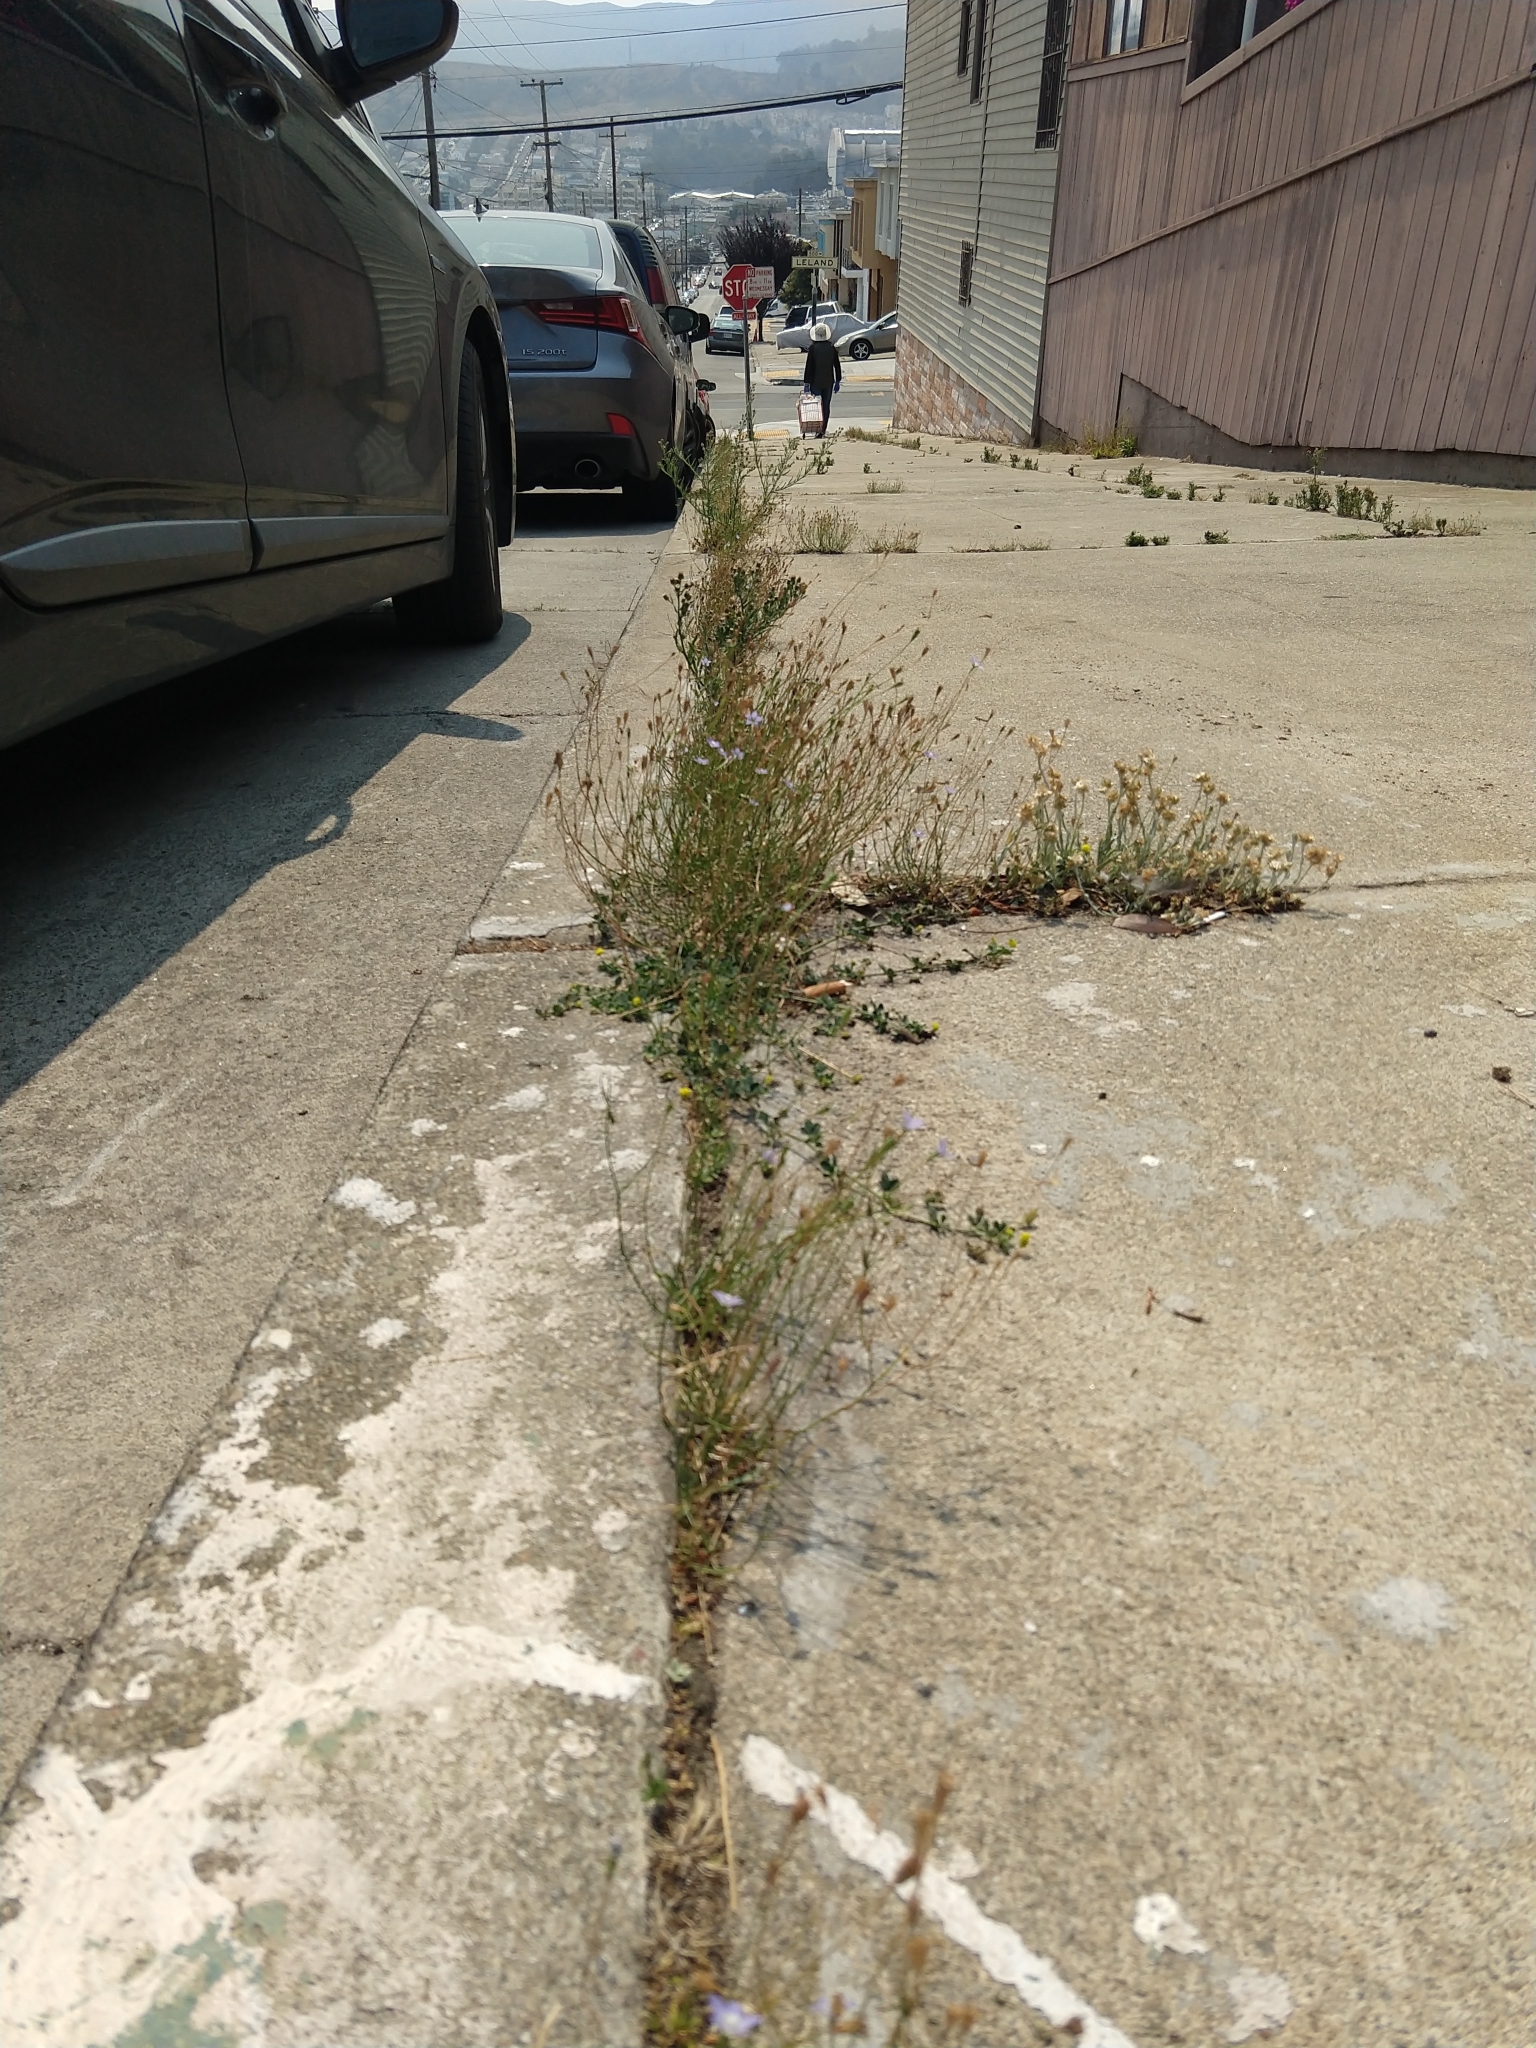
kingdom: Plantae
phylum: Tracheophyta
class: Magnoliopsida
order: Asterales
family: Campanulaceae
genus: Wahlenbergia
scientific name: Wahlenbergia marginata
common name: Southern rockbell
